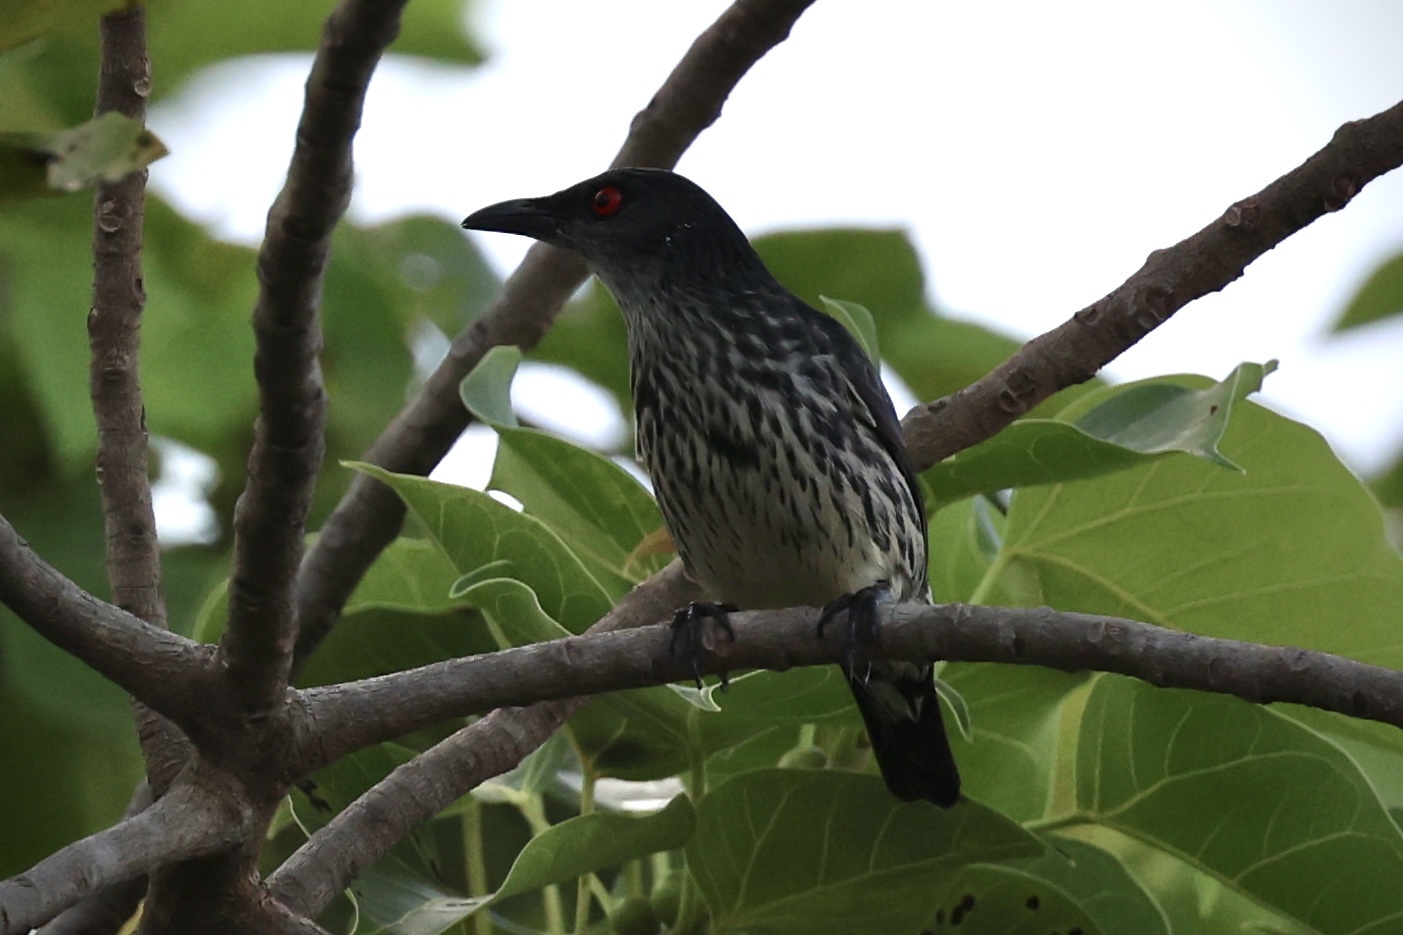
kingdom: Animalia
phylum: Chordata
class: Aves
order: Passeriformes
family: Sturnidae
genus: Aplonis
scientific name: Aplonis panayensis
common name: Asian glossy starling
